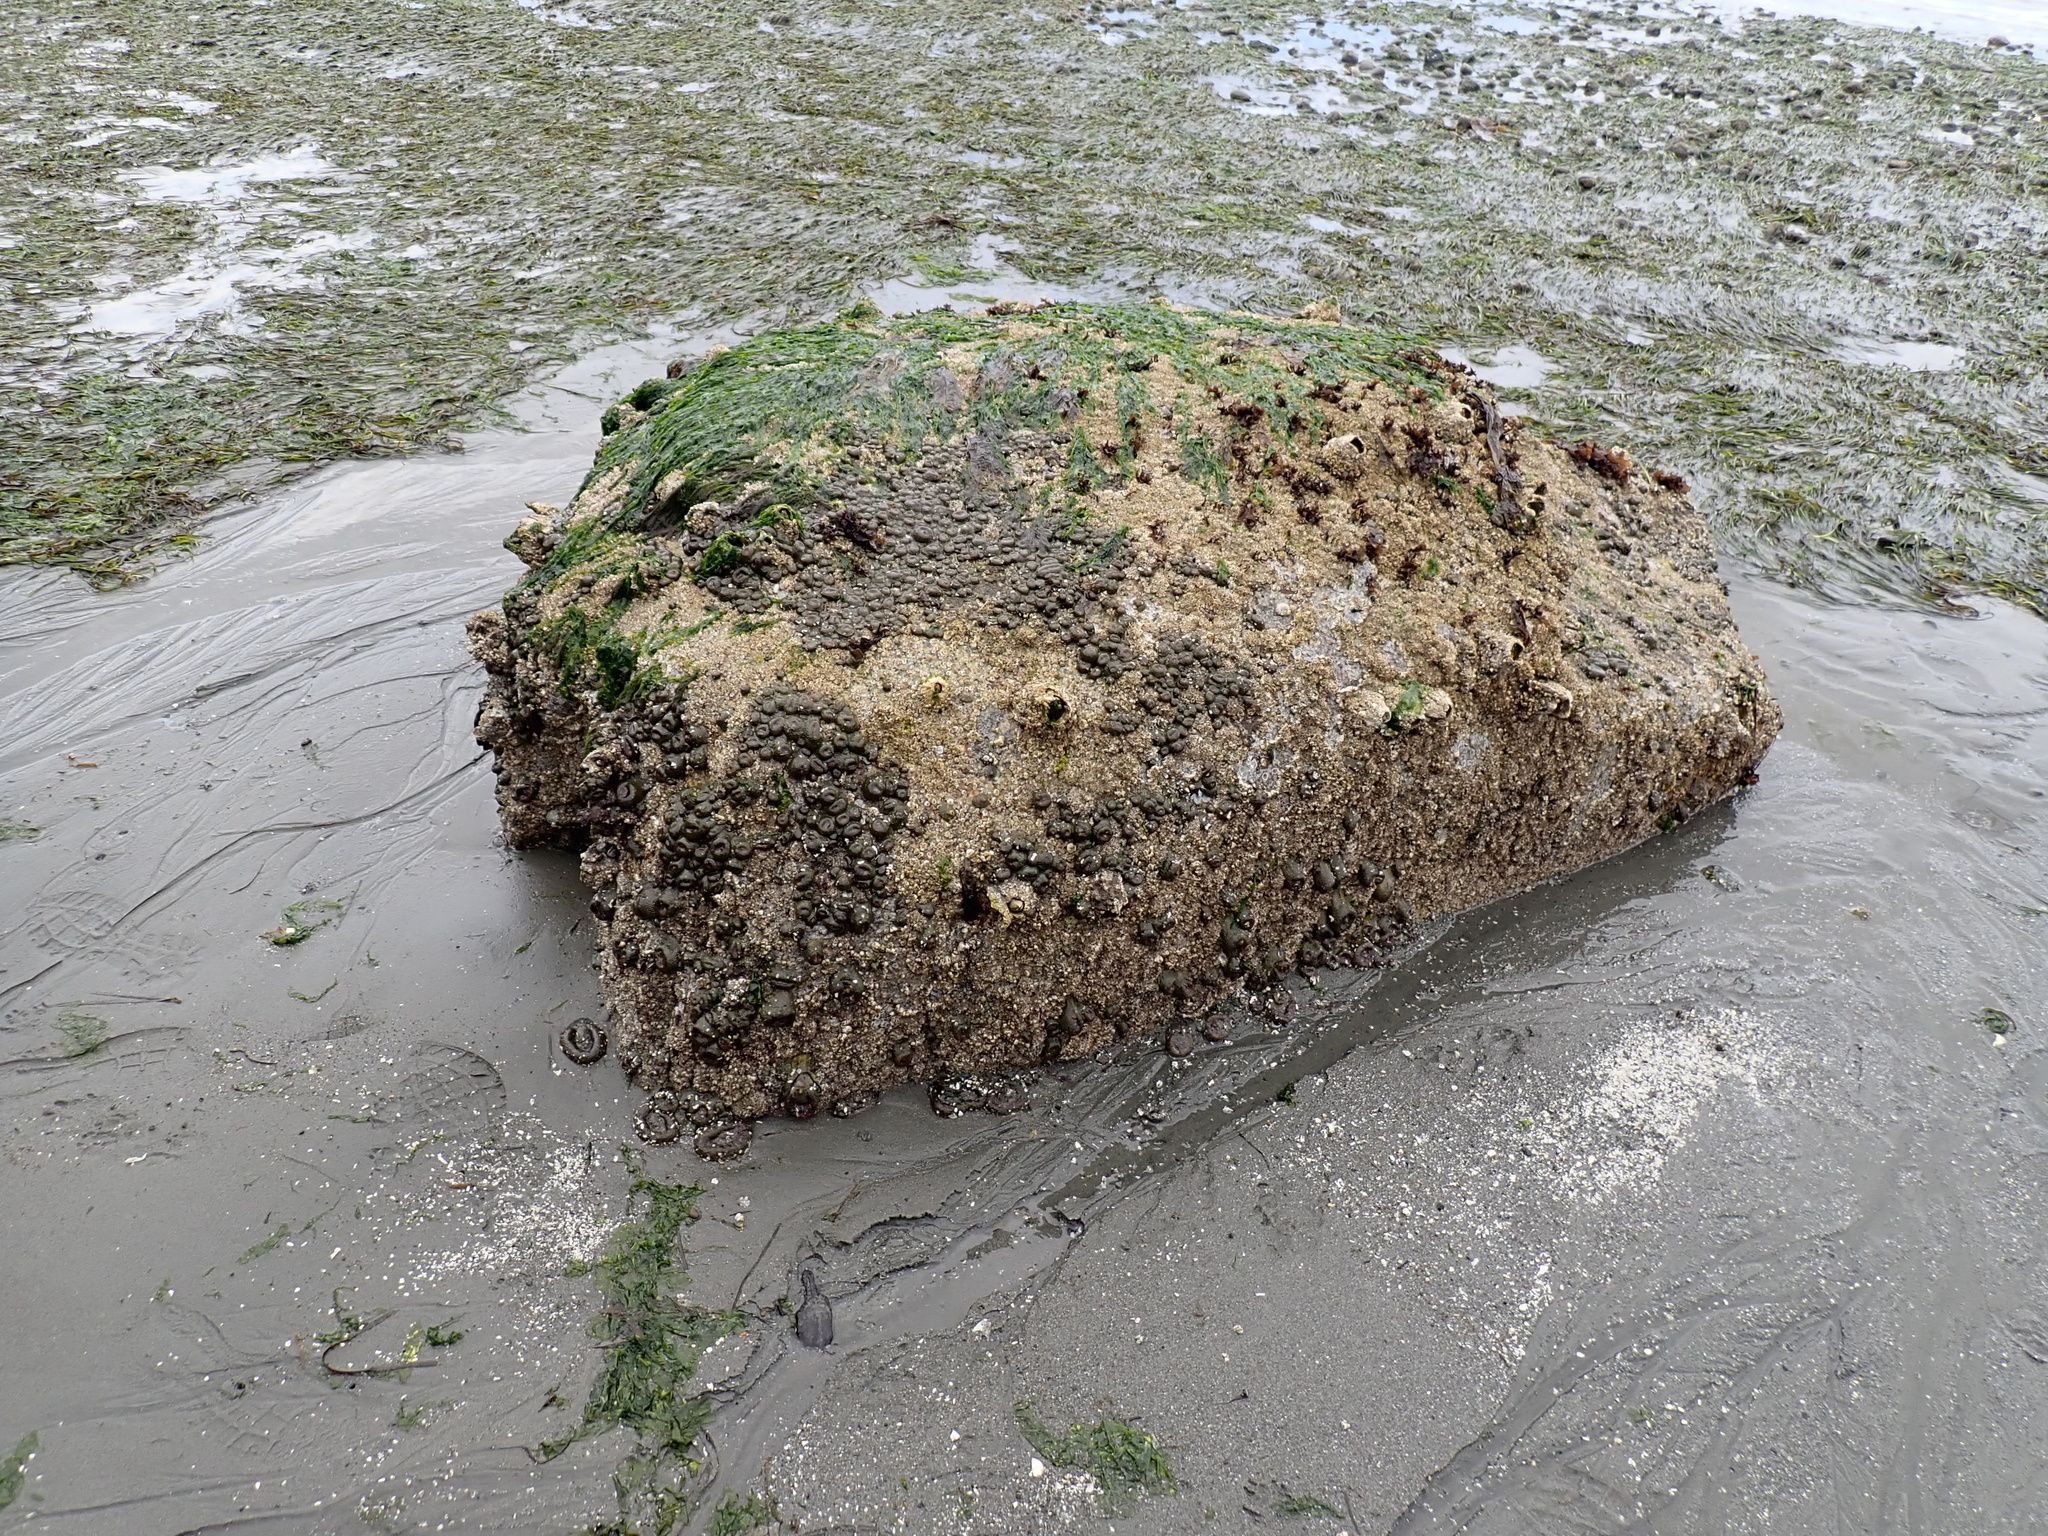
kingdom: Animalia
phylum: Cnidaria
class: Anthozoa
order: Actiniaria
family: Actiniidae
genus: Anthopleura
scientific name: Anthopleura elegantissima
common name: Clonal anemone
